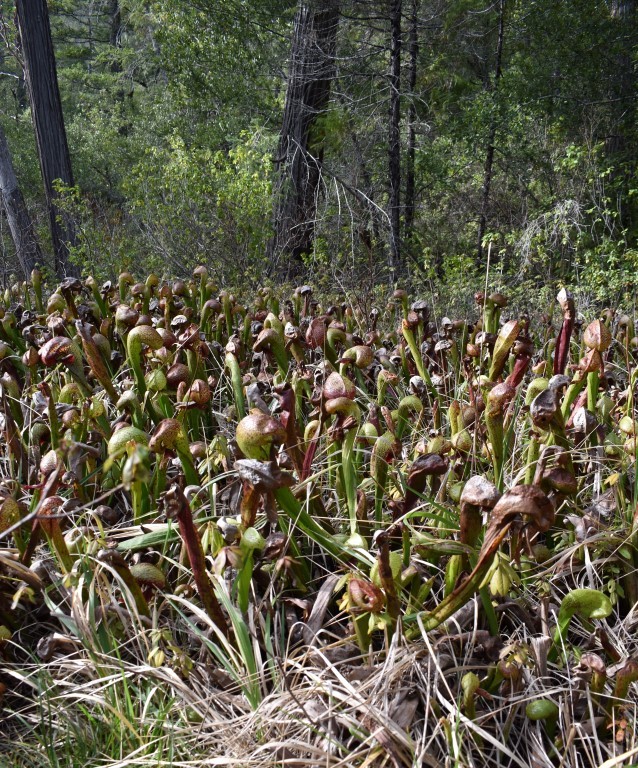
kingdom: Plantae
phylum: Tracheophyta
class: Magnoliopsida
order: Ericales
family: Sarraceniaceae
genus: Darlingtonia
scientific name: Darlingtonia californica
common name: California pitcher plant
